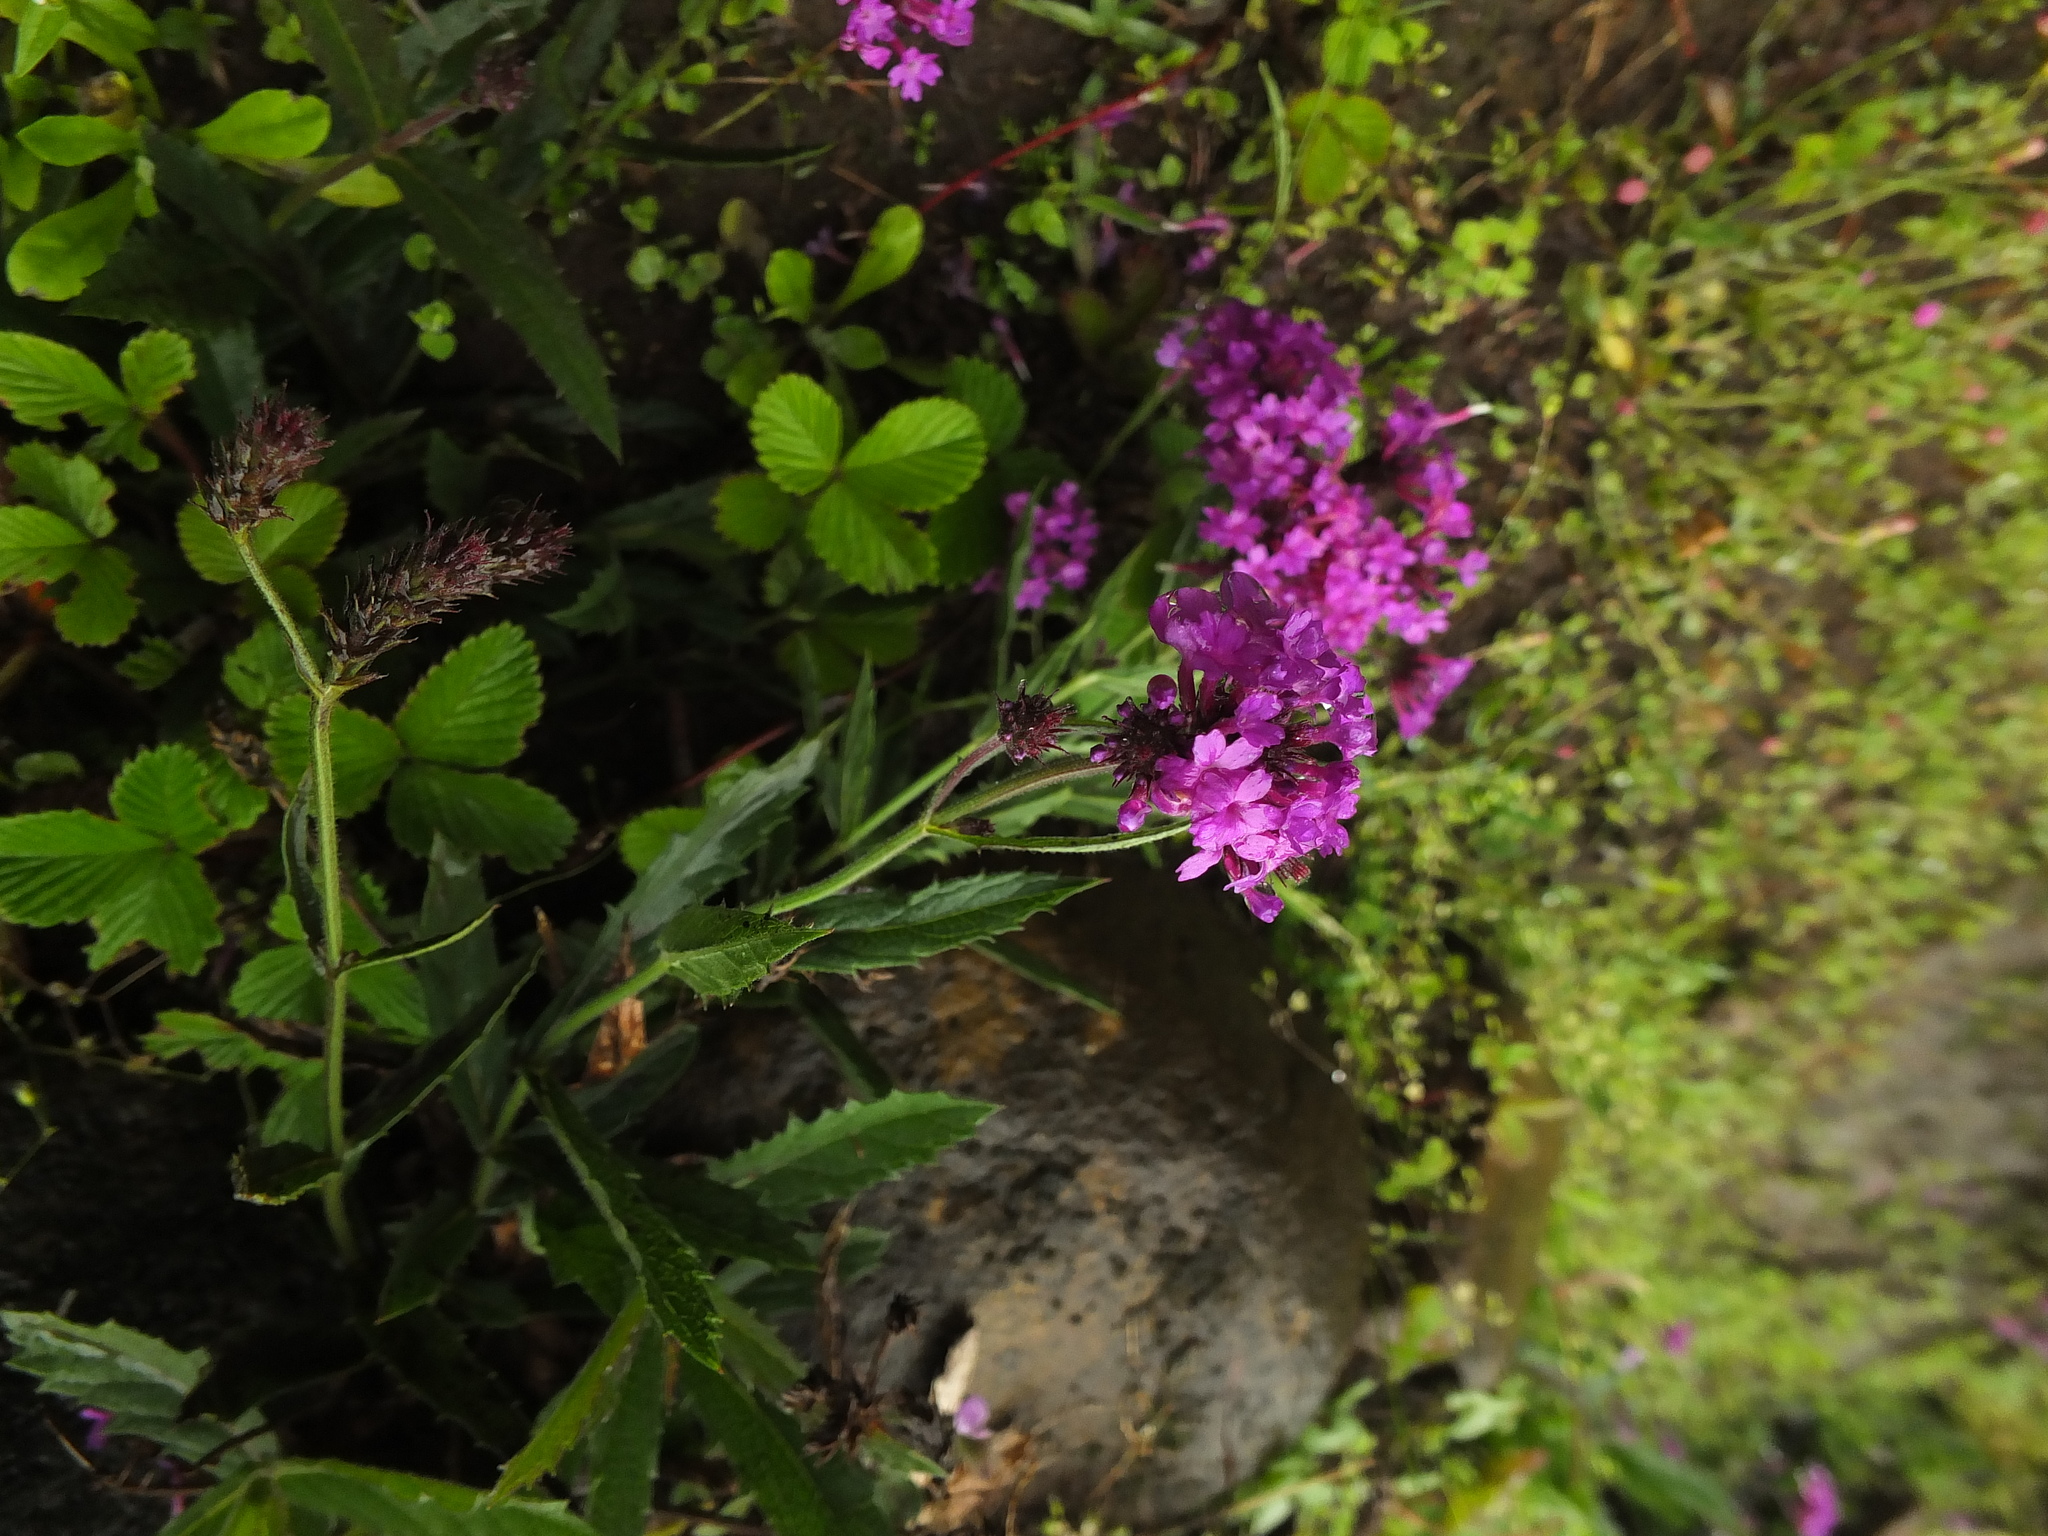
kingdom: Plantae
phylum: Tracheophyta
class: Magnoliopsida
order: Lamiales
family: Verbenaceae
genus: Verbena
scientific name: Verbena bonariensis
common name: Purpletop vervain
